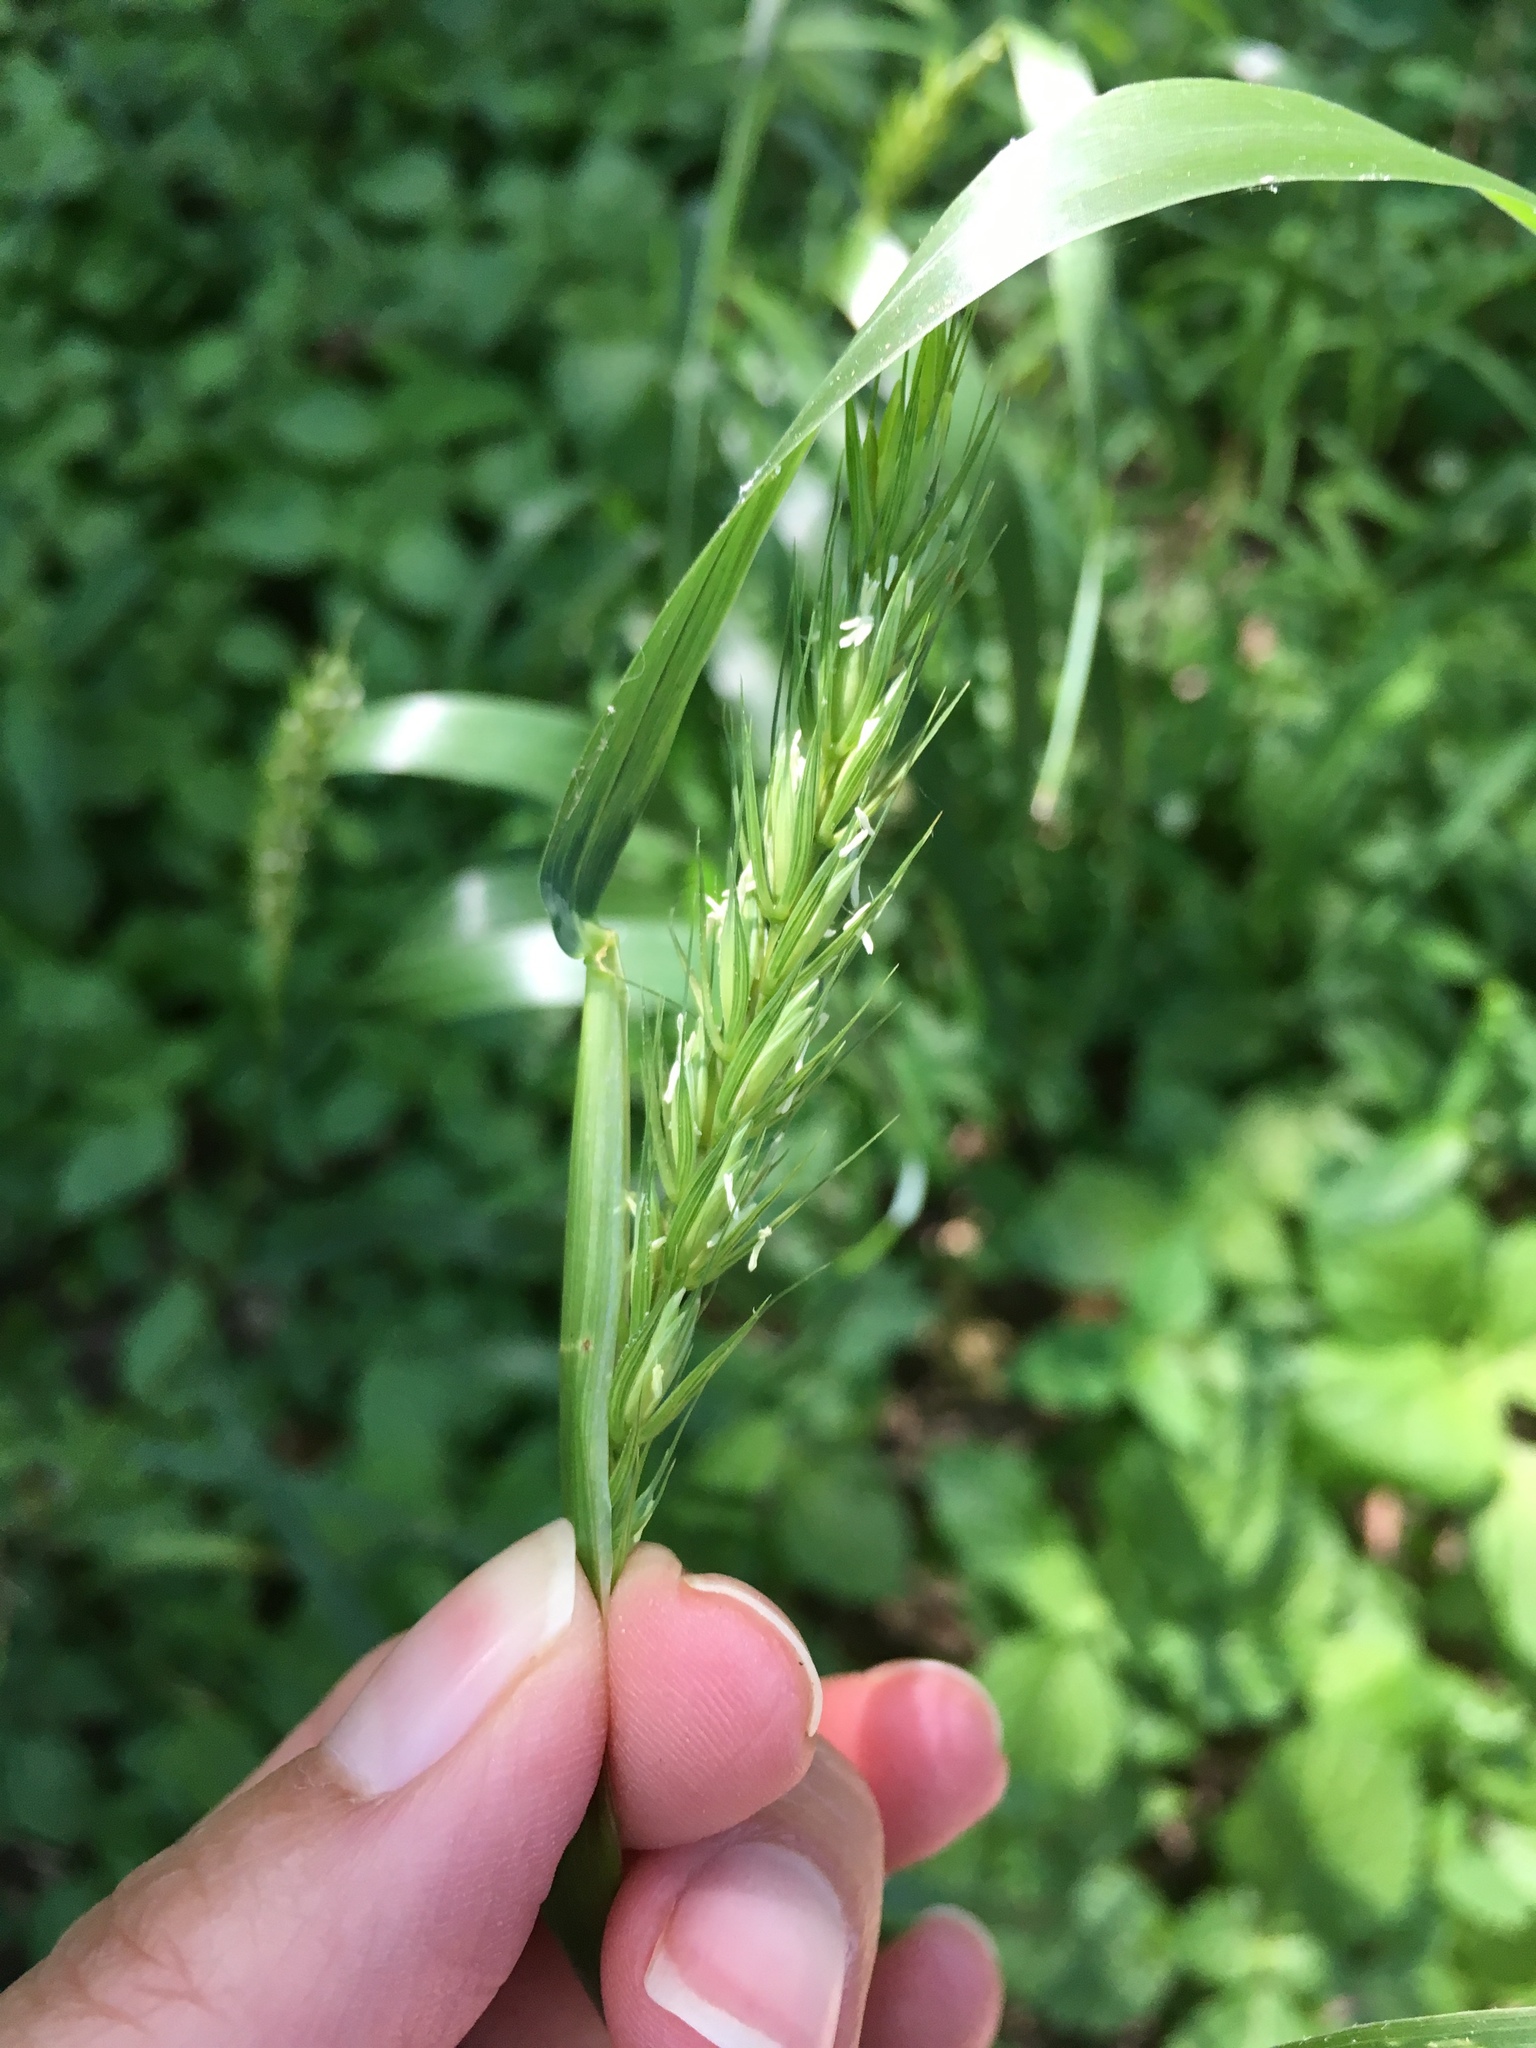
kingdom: Plantae
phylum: Tracheophyta
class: Liliopsida
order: Poales
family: Poaceae
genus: Elymus
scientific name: Elymus virginicus
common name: Common eastern wildrye
